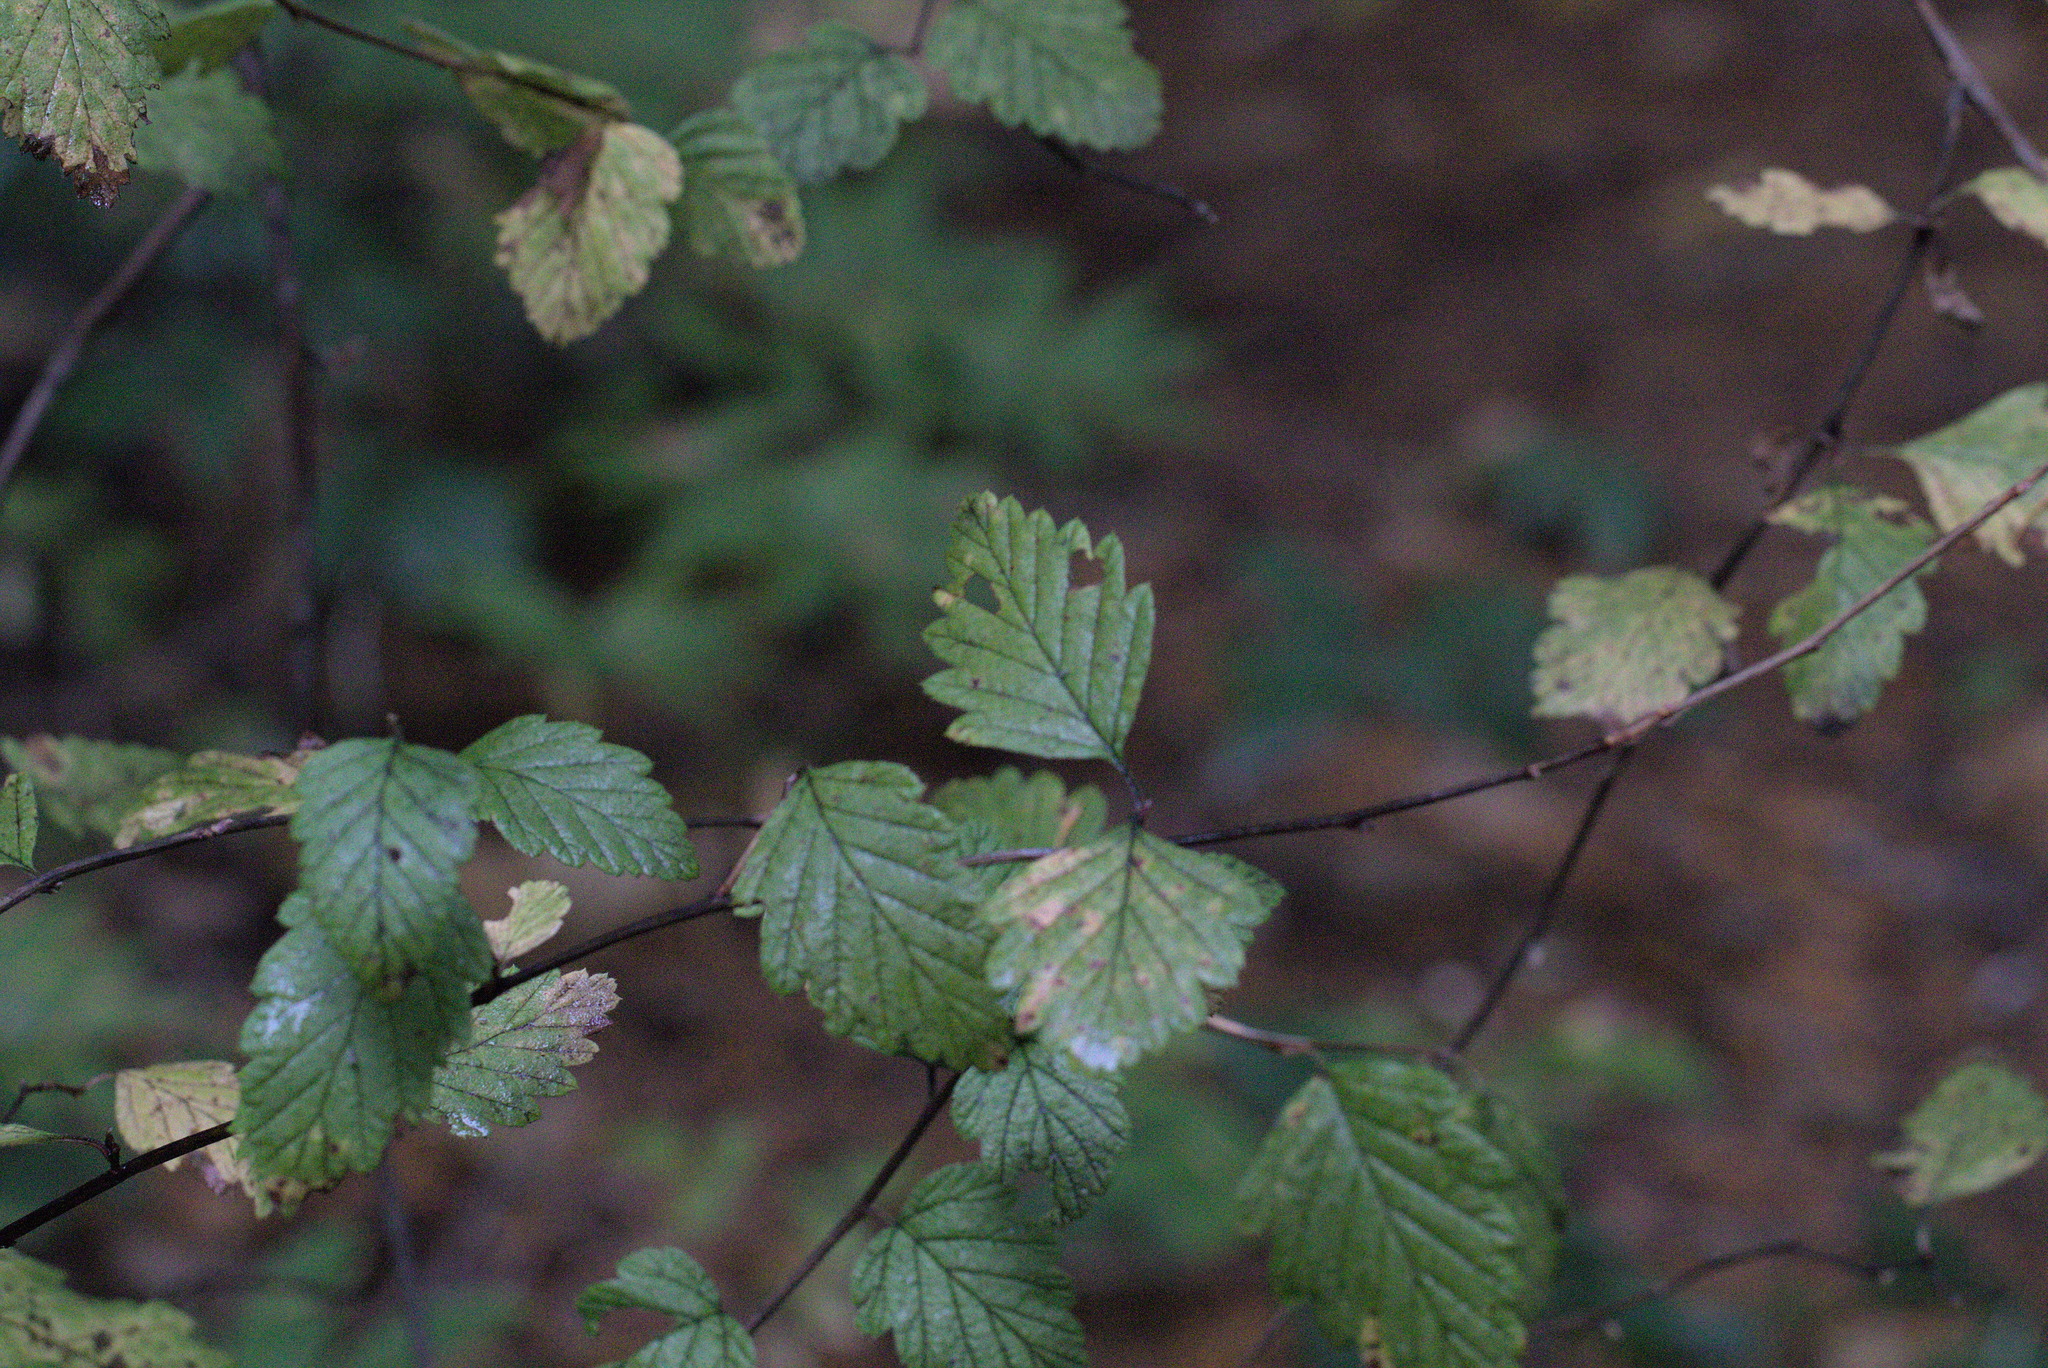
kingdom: Plantae
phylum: Tracheophyta
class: Magnoliopsida
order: Rosales
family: Rosaceae
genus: Holodiscus
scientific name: Holodiscus discolor
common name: Oceanspray
